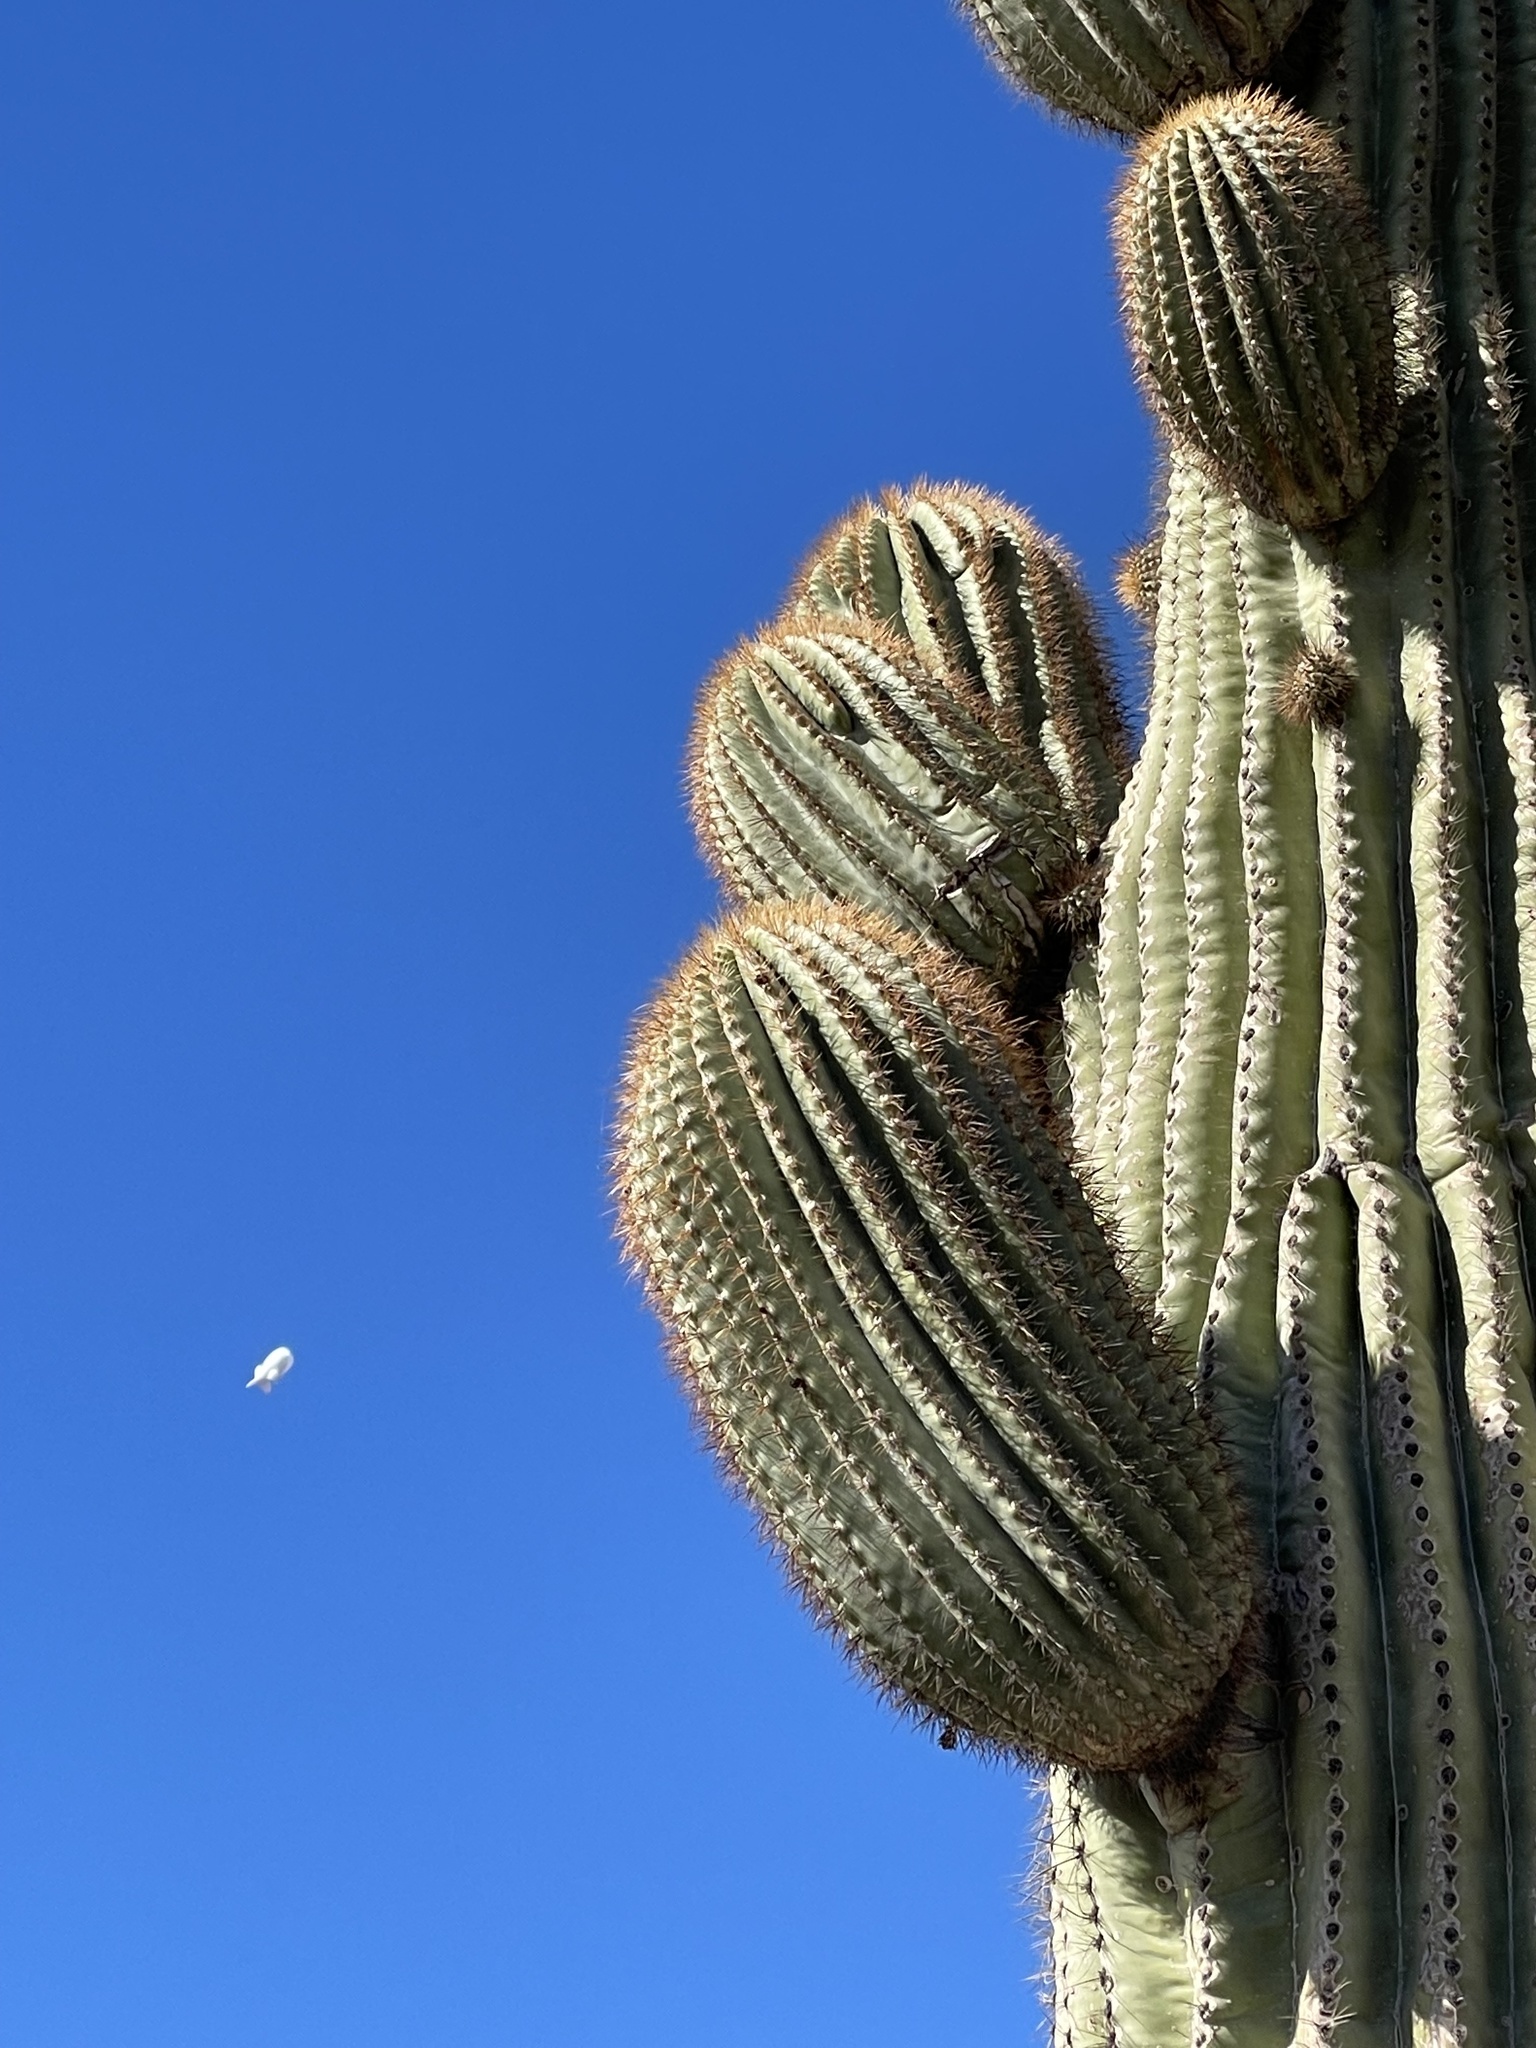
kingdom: Plantae
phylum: Tracheophyta
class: Magnoliopsida
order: Caryophyllales
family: Cactaceae
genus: Carnegiea
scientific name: Carnegiea gigantea
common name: Saguaro
